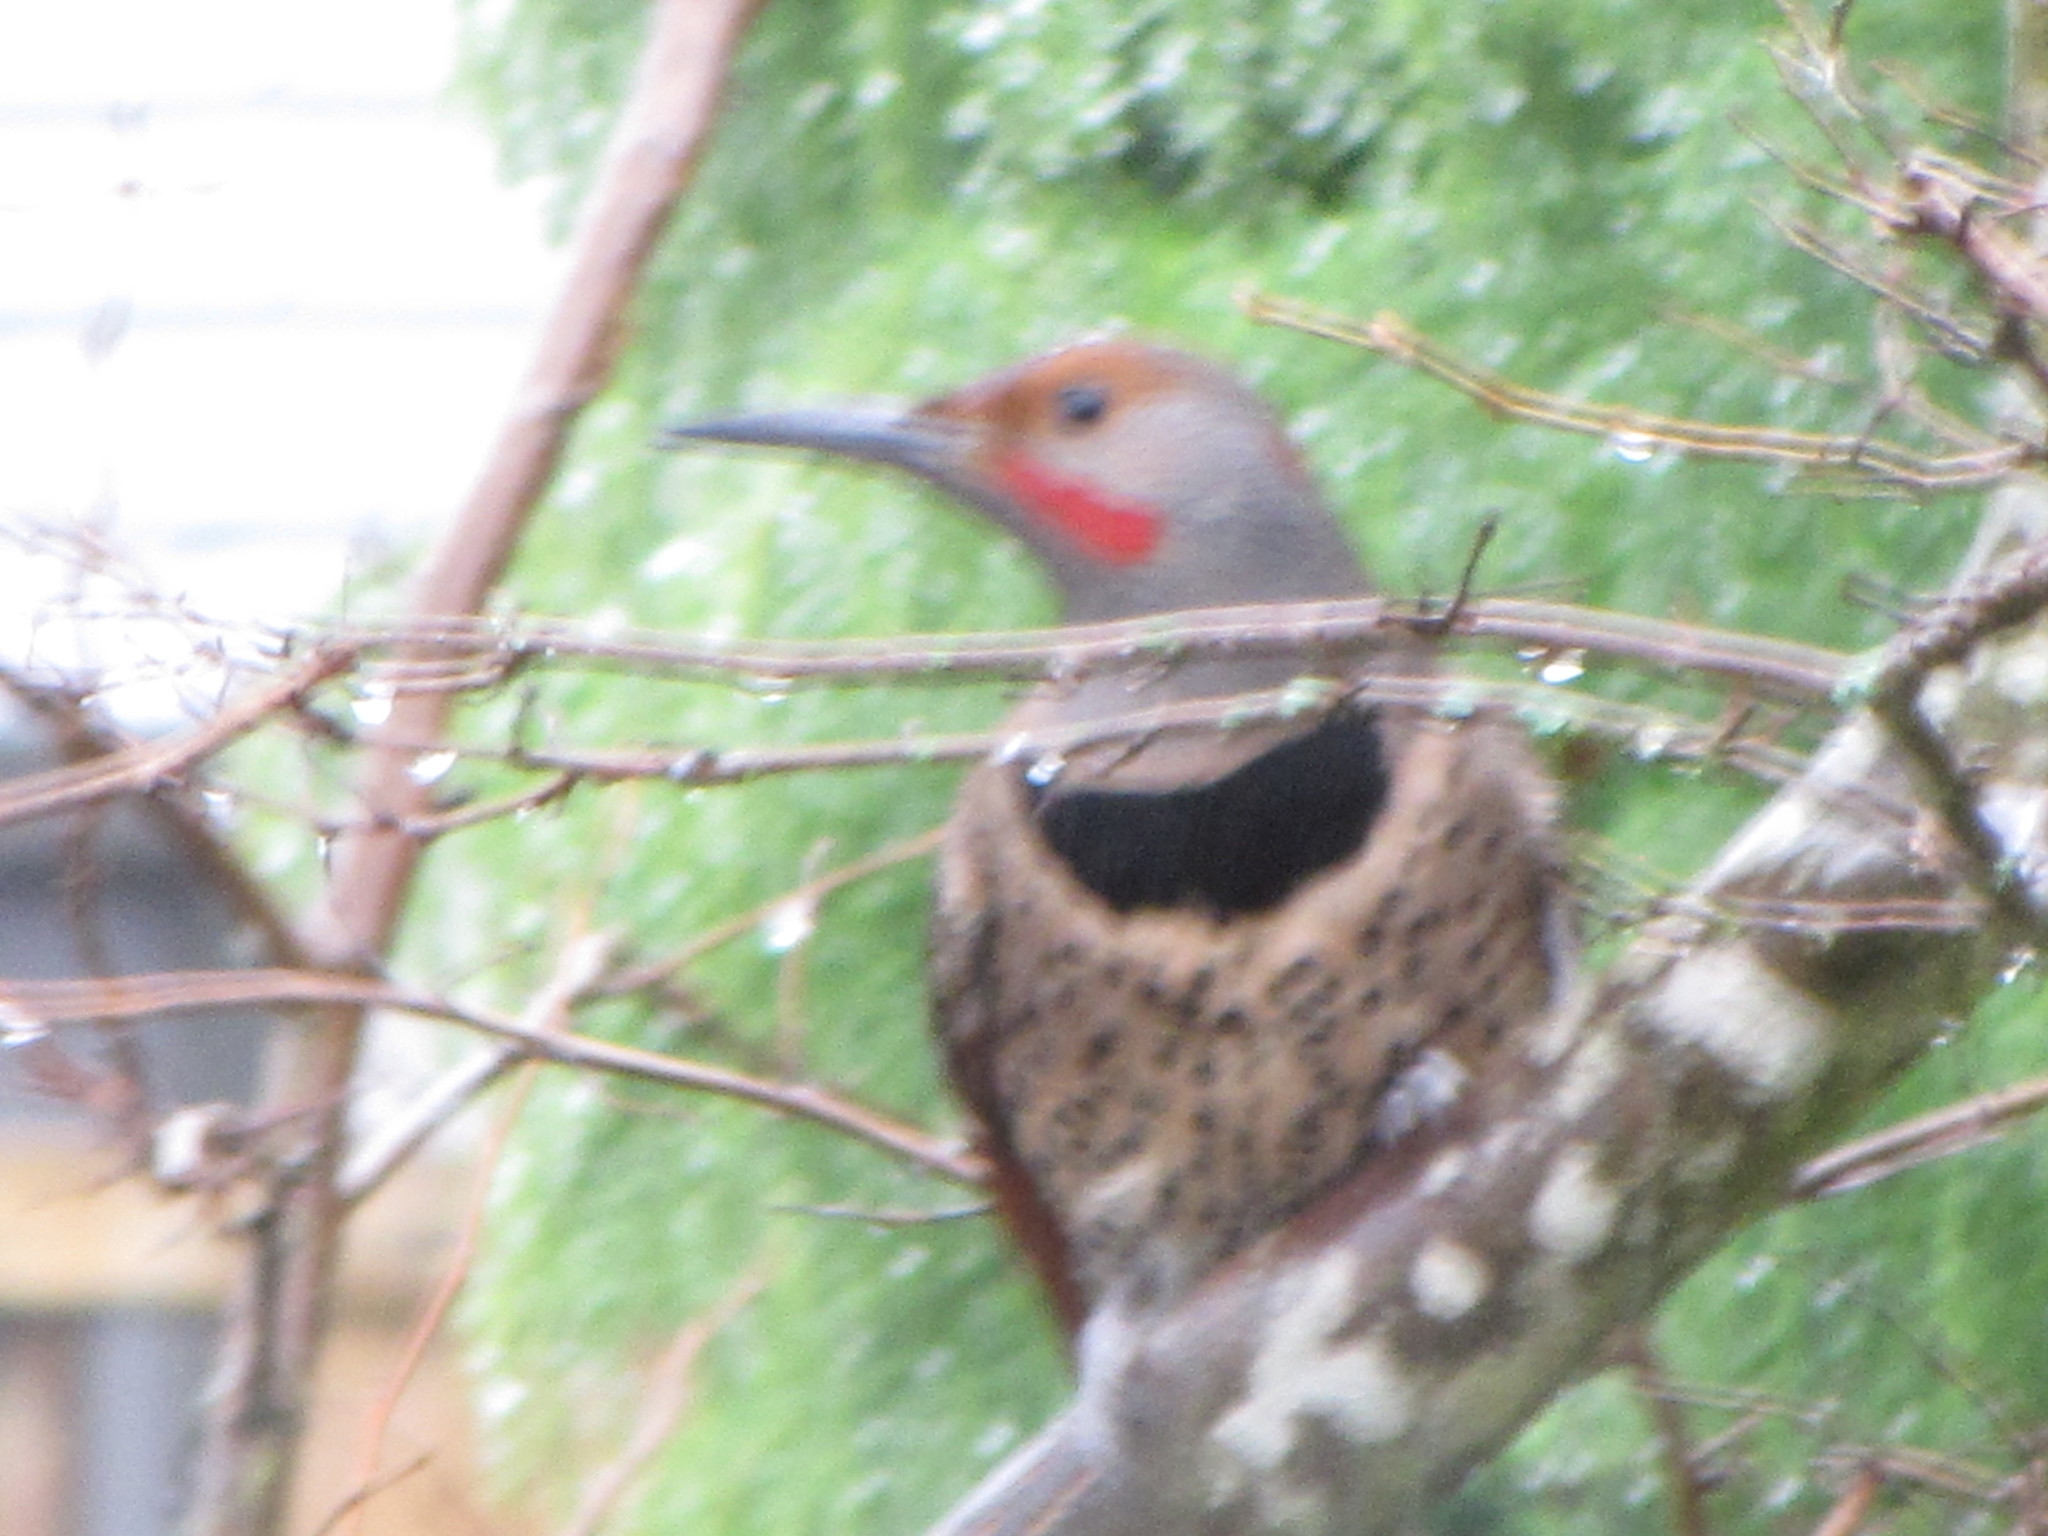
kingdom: Animalia
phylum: Chordata
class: Aves
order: Piciformes
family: Picidae
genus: Colaptes
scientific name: Colaptes auratus
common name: Northern flicker
